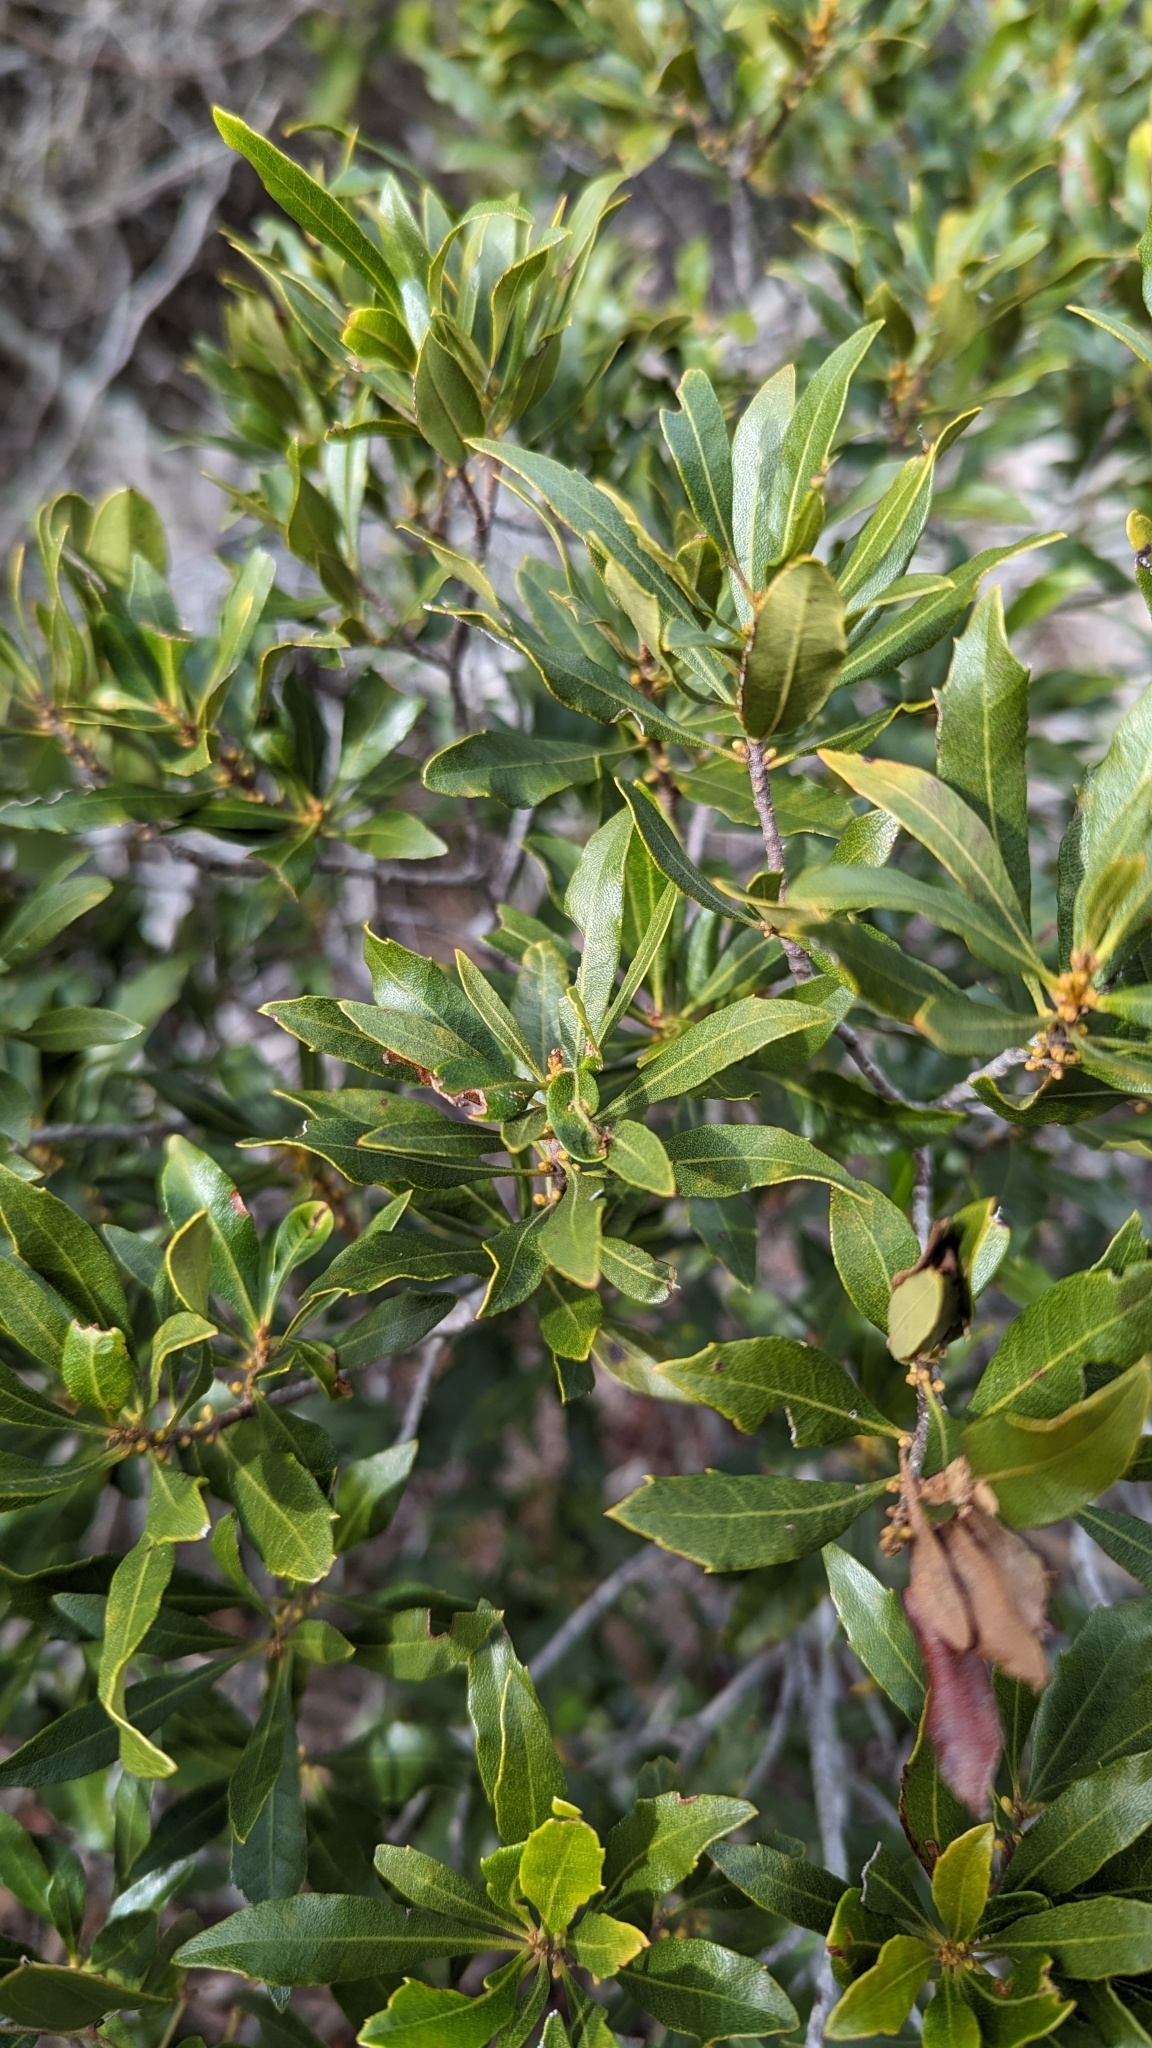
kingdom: Plantae
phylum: Tracheophyta
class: Magnoliopsida
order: Fagales
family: Myricaceae
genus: Morella
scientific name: Morella cerifera
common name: Wax myrtle
